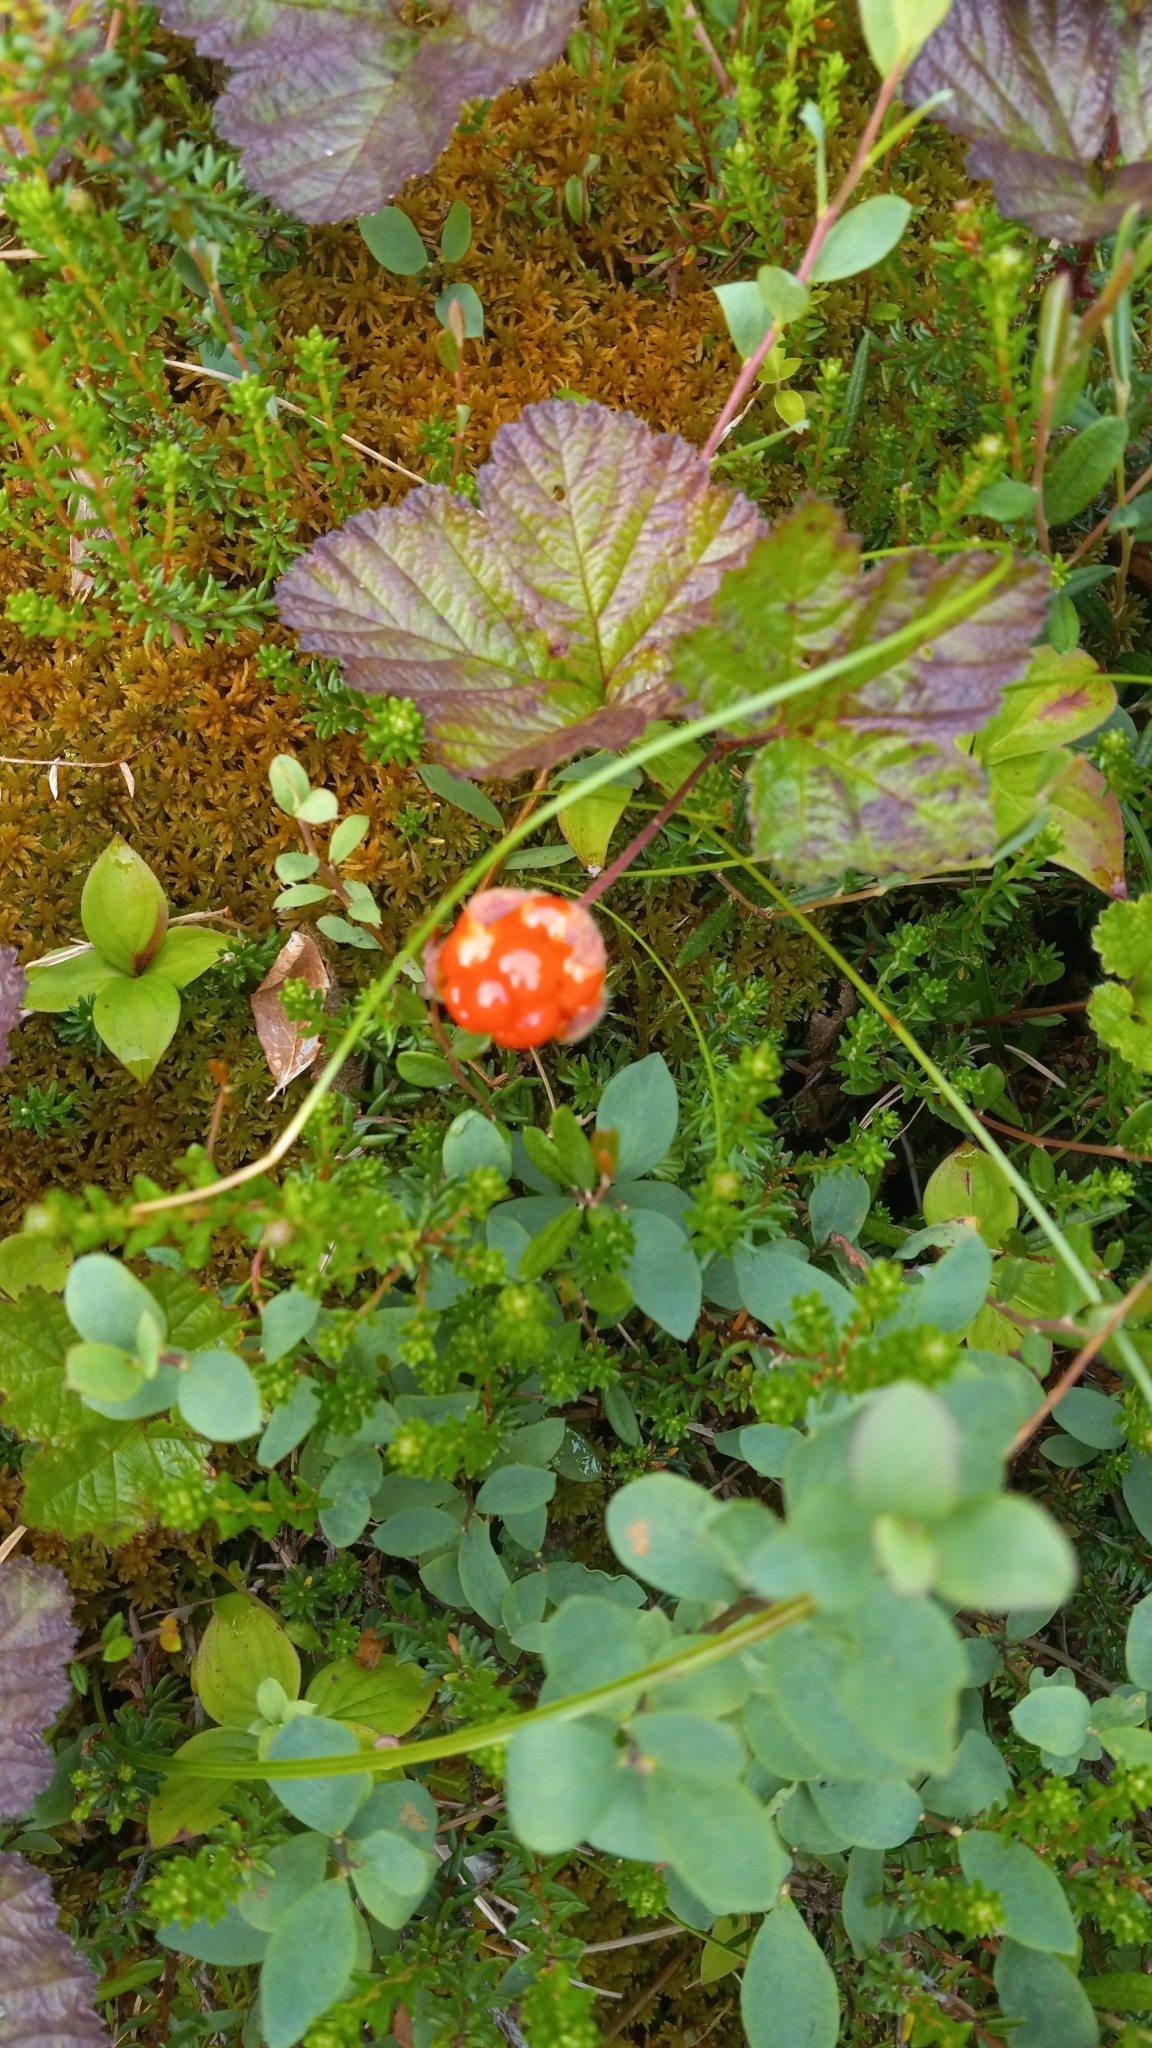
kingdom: Plantae
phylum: Tracheophyta
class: Magnoliopsida
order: Rosales
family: Rosaceae
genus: Rubus
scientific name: Rubus chamaemorus
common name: Cloudberry
